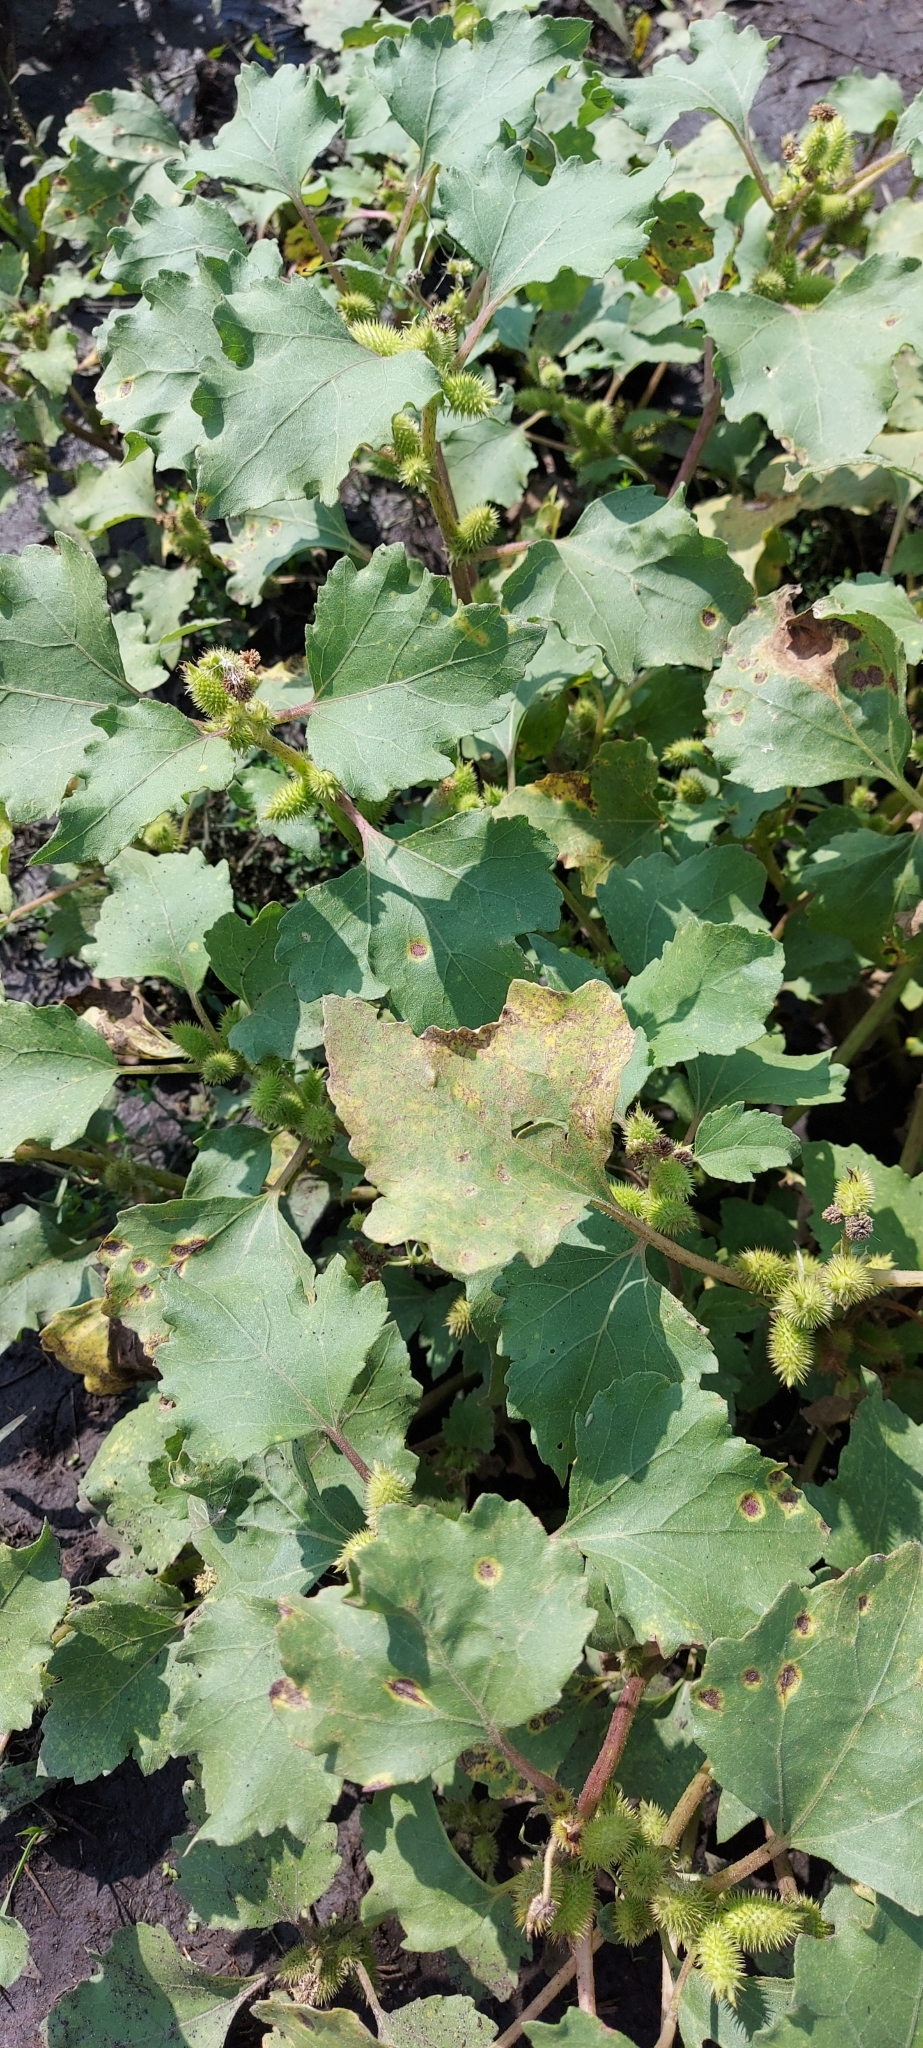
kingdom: Plantae
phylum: Tracheophyta
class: Magnoliopsida
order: Asterales
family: Asteraceae
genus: Xanthium
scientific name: Xanthium orientale
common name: Californian burr
